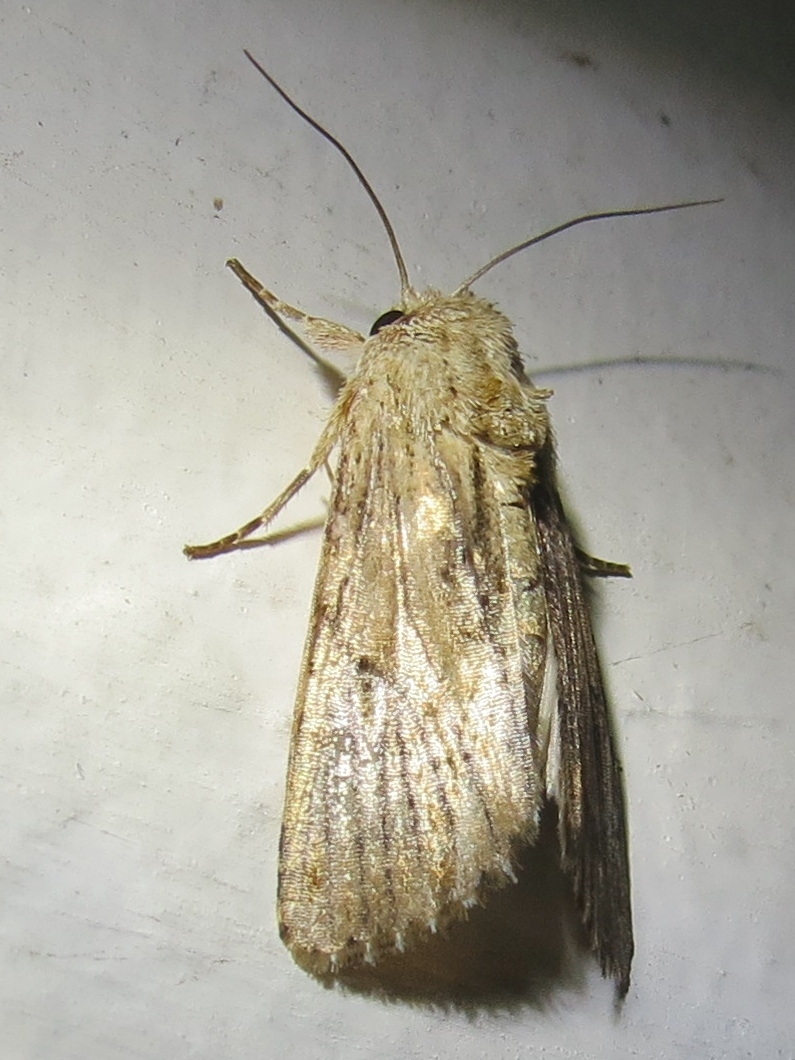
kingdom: Animalia
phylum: Arthropoda
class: Insecta
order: Lepidoptera
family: Noctuidae
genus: Spodoptera
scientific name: Spodoptera eridania
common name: Southern army worm
